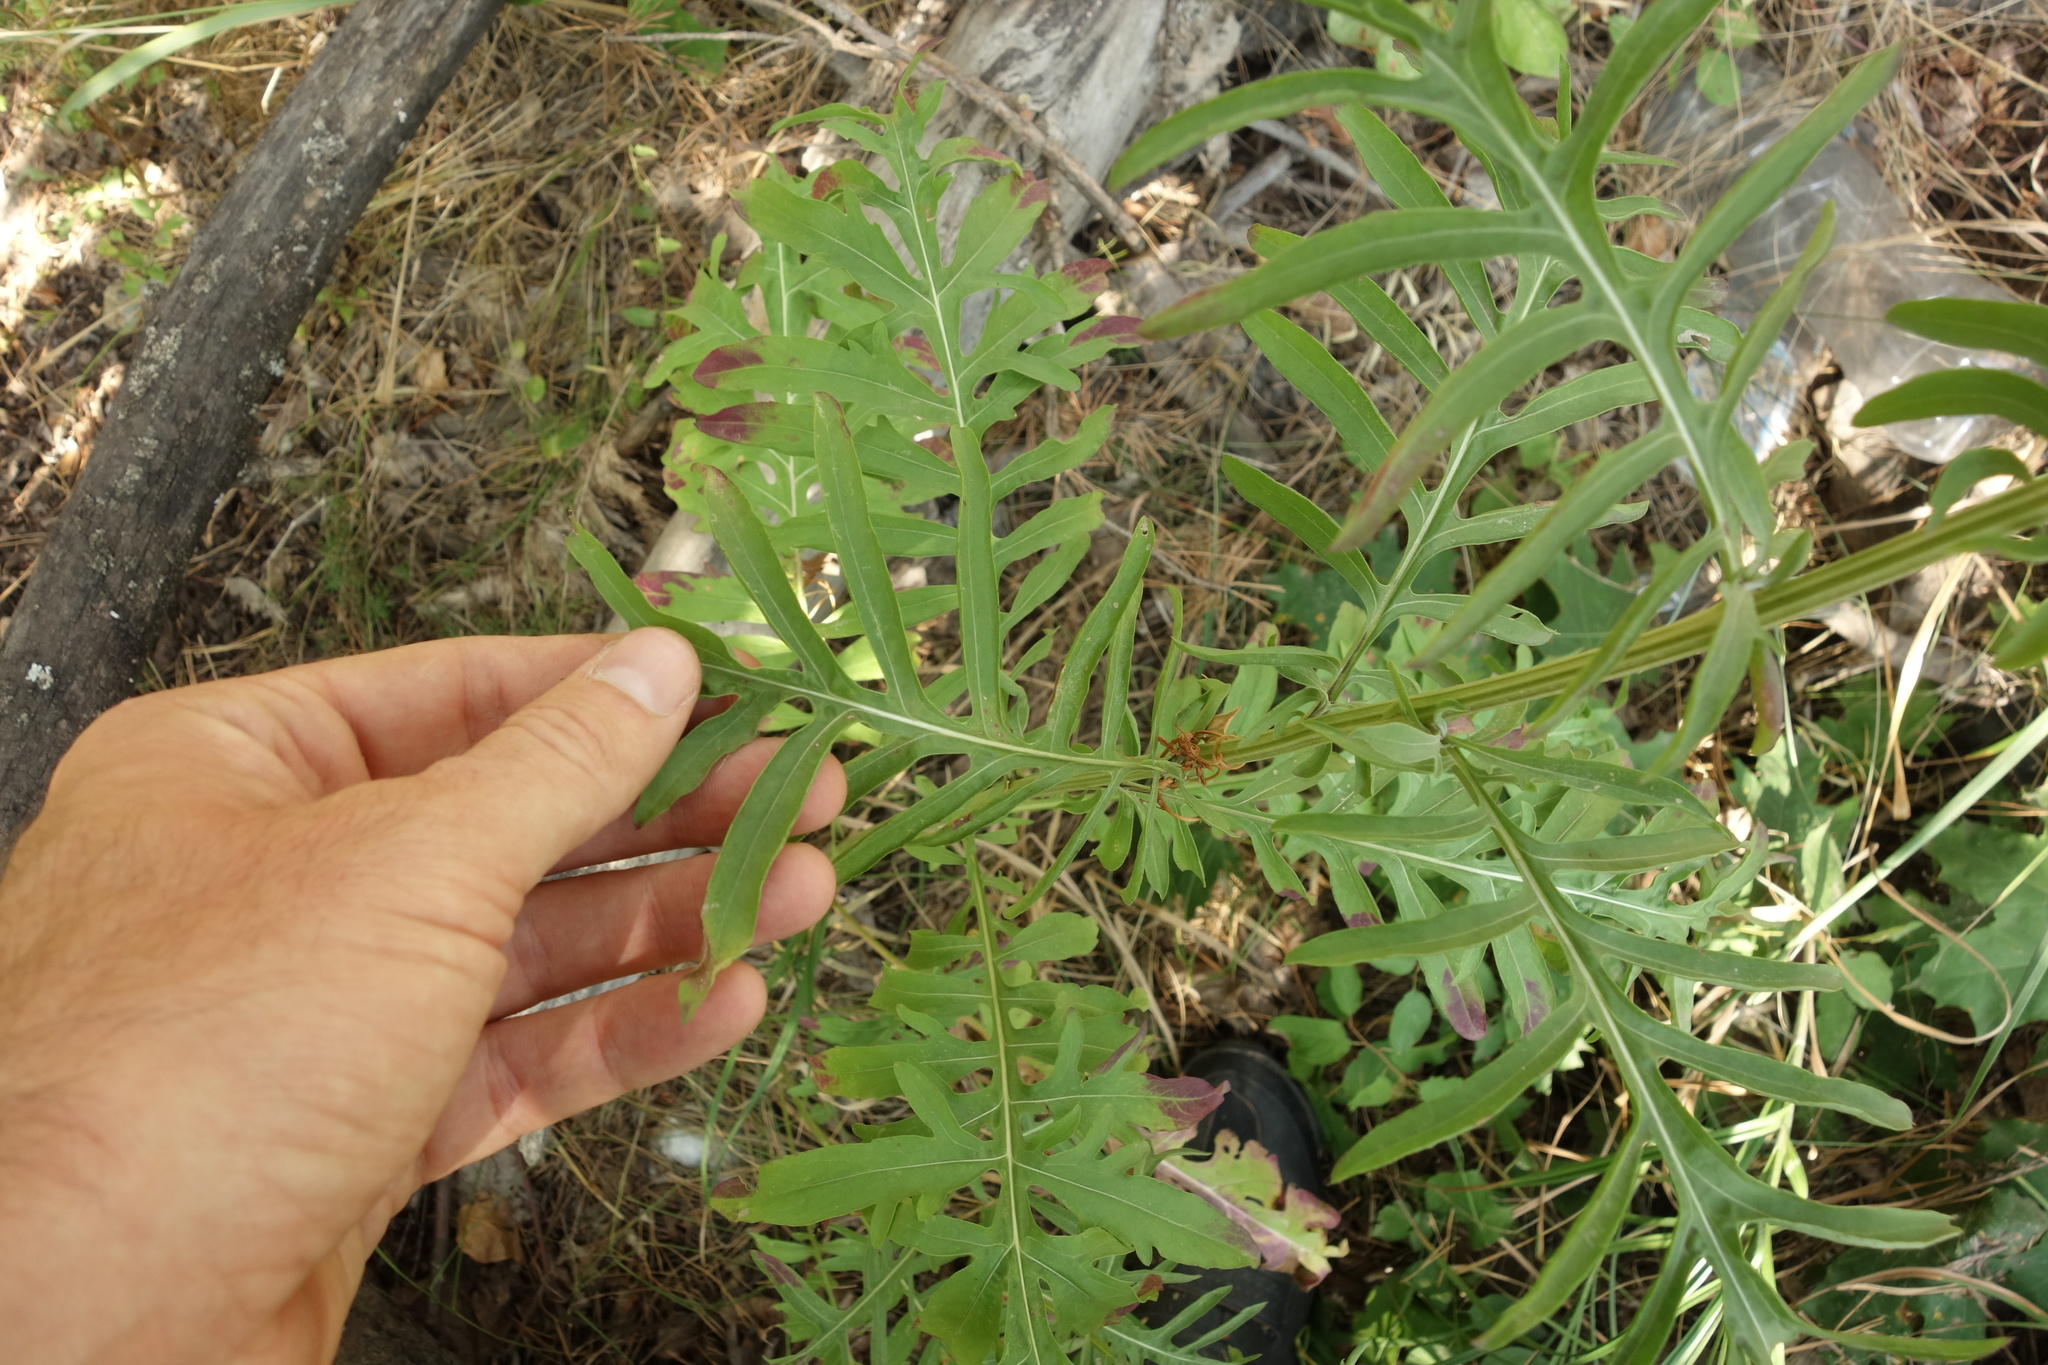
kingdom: Plantae
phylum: Tracheophyta
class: Magnoliopsida
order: Asterales
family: Asteraceae
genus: Centaurea
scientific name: Centaurea scabiosa
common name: Greater knapweed
